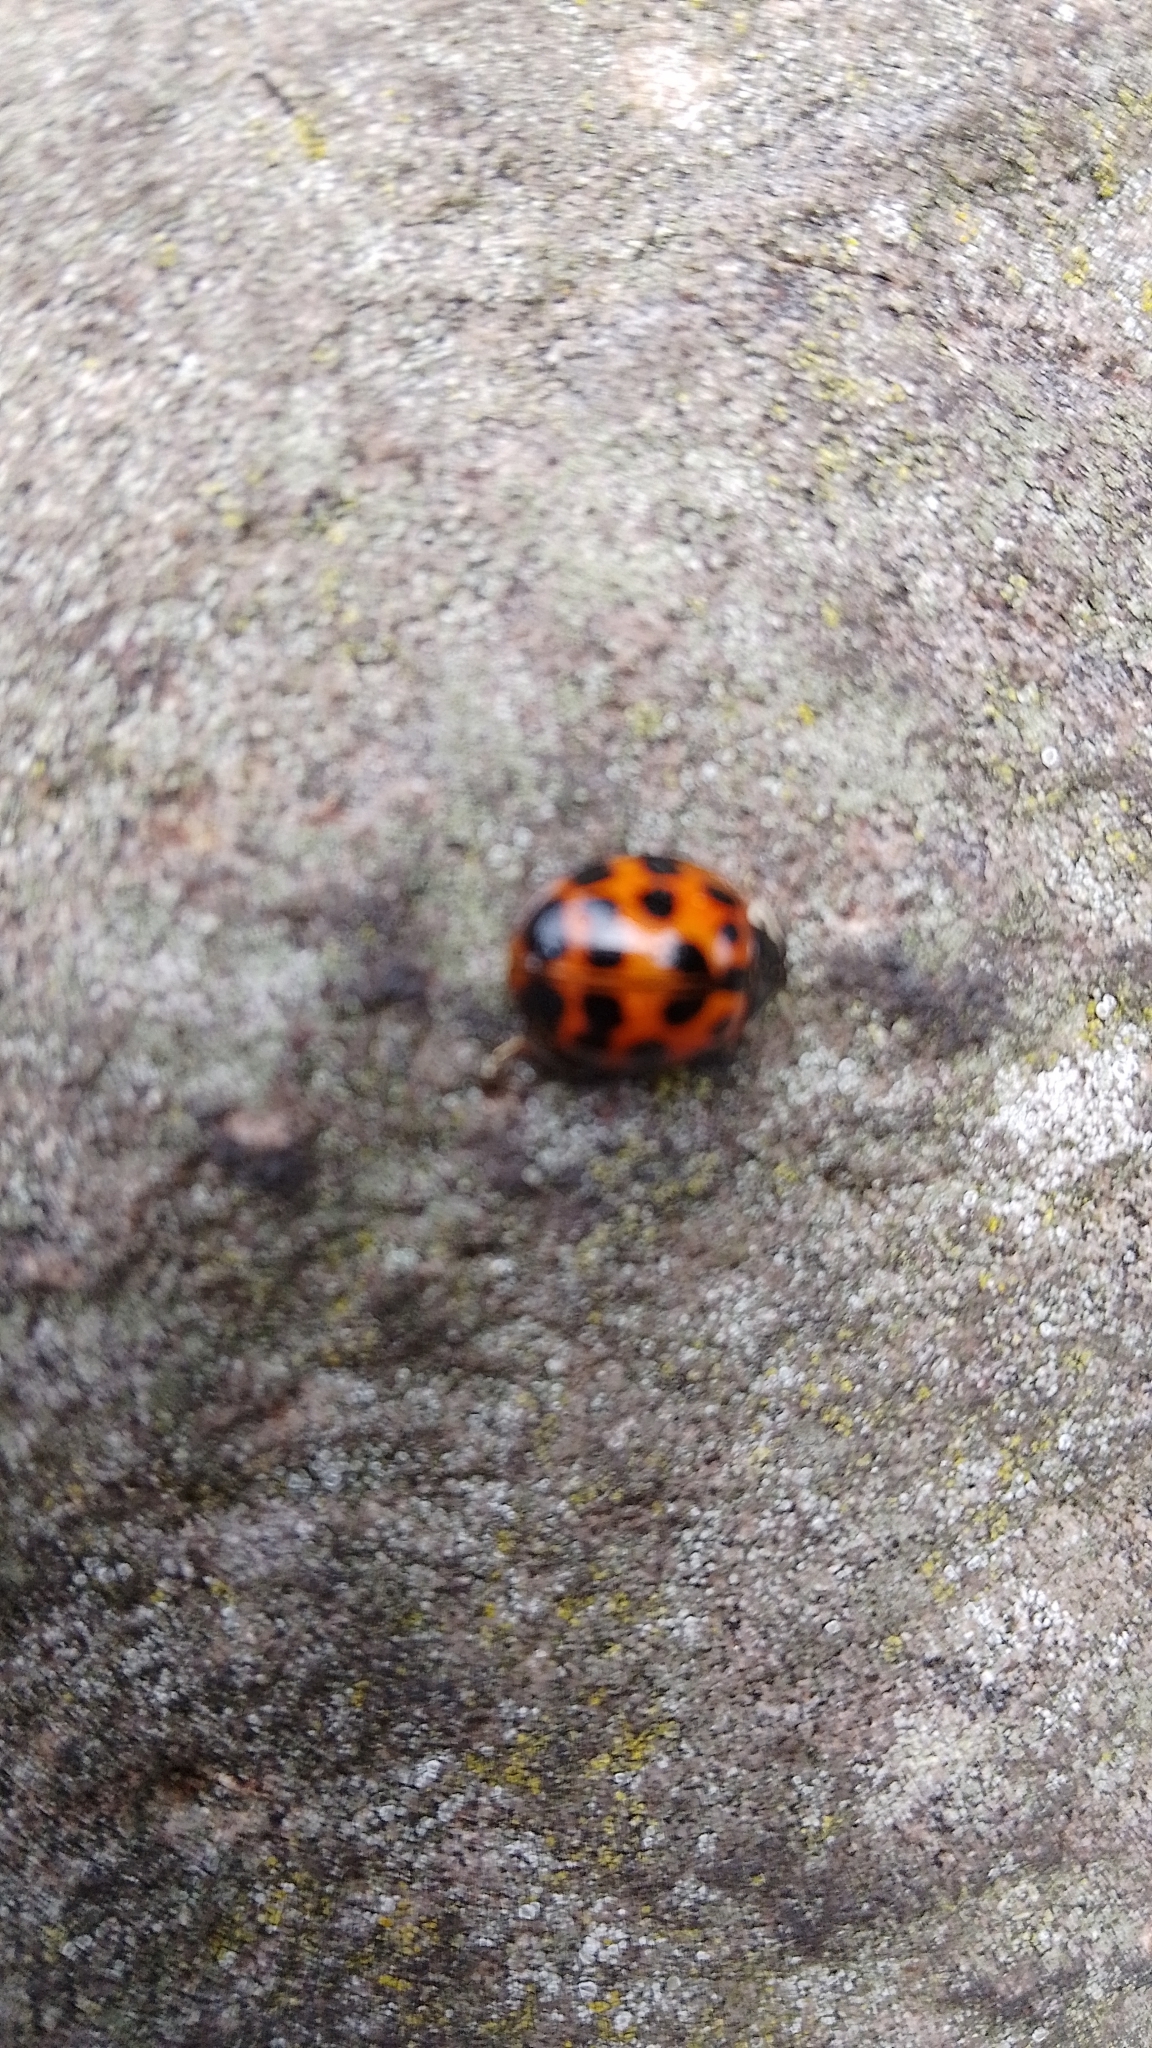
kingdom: Animalia
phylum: Arthropoda
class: Insecta
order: Coleoptera
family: Coccinellidae
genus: Harmonia
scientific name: Harmonia axyridis
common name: Harlequin ladybird
